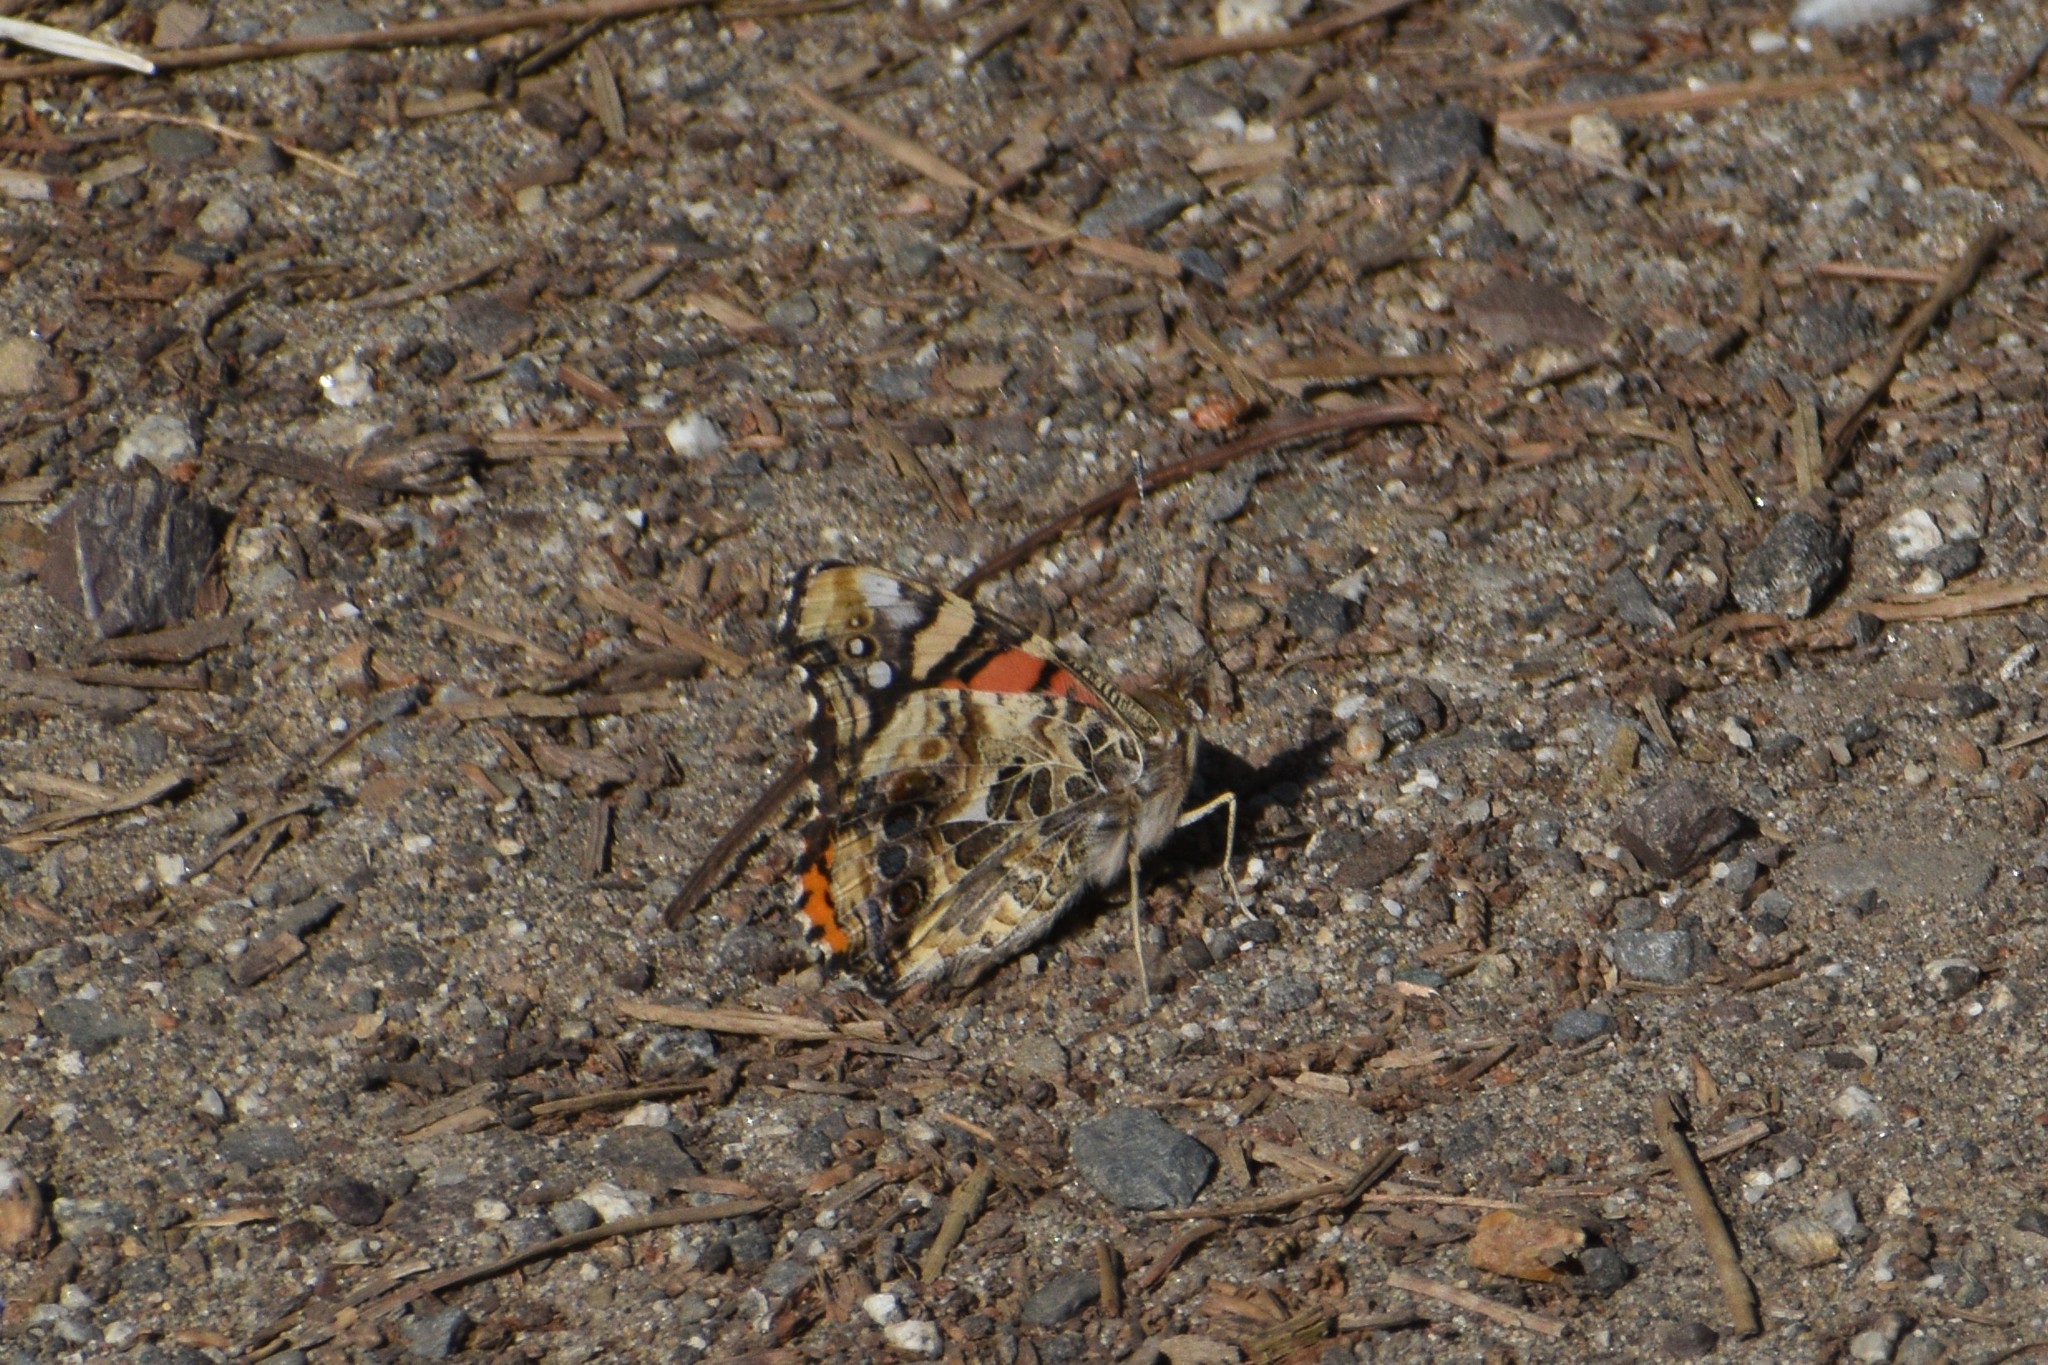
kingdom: Animalia
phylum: Arthropoda
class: Insecta
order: Lepidoptera
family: Nymphalidae
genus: Vanessa
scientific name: Vanessa annabella
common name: West coast lady
